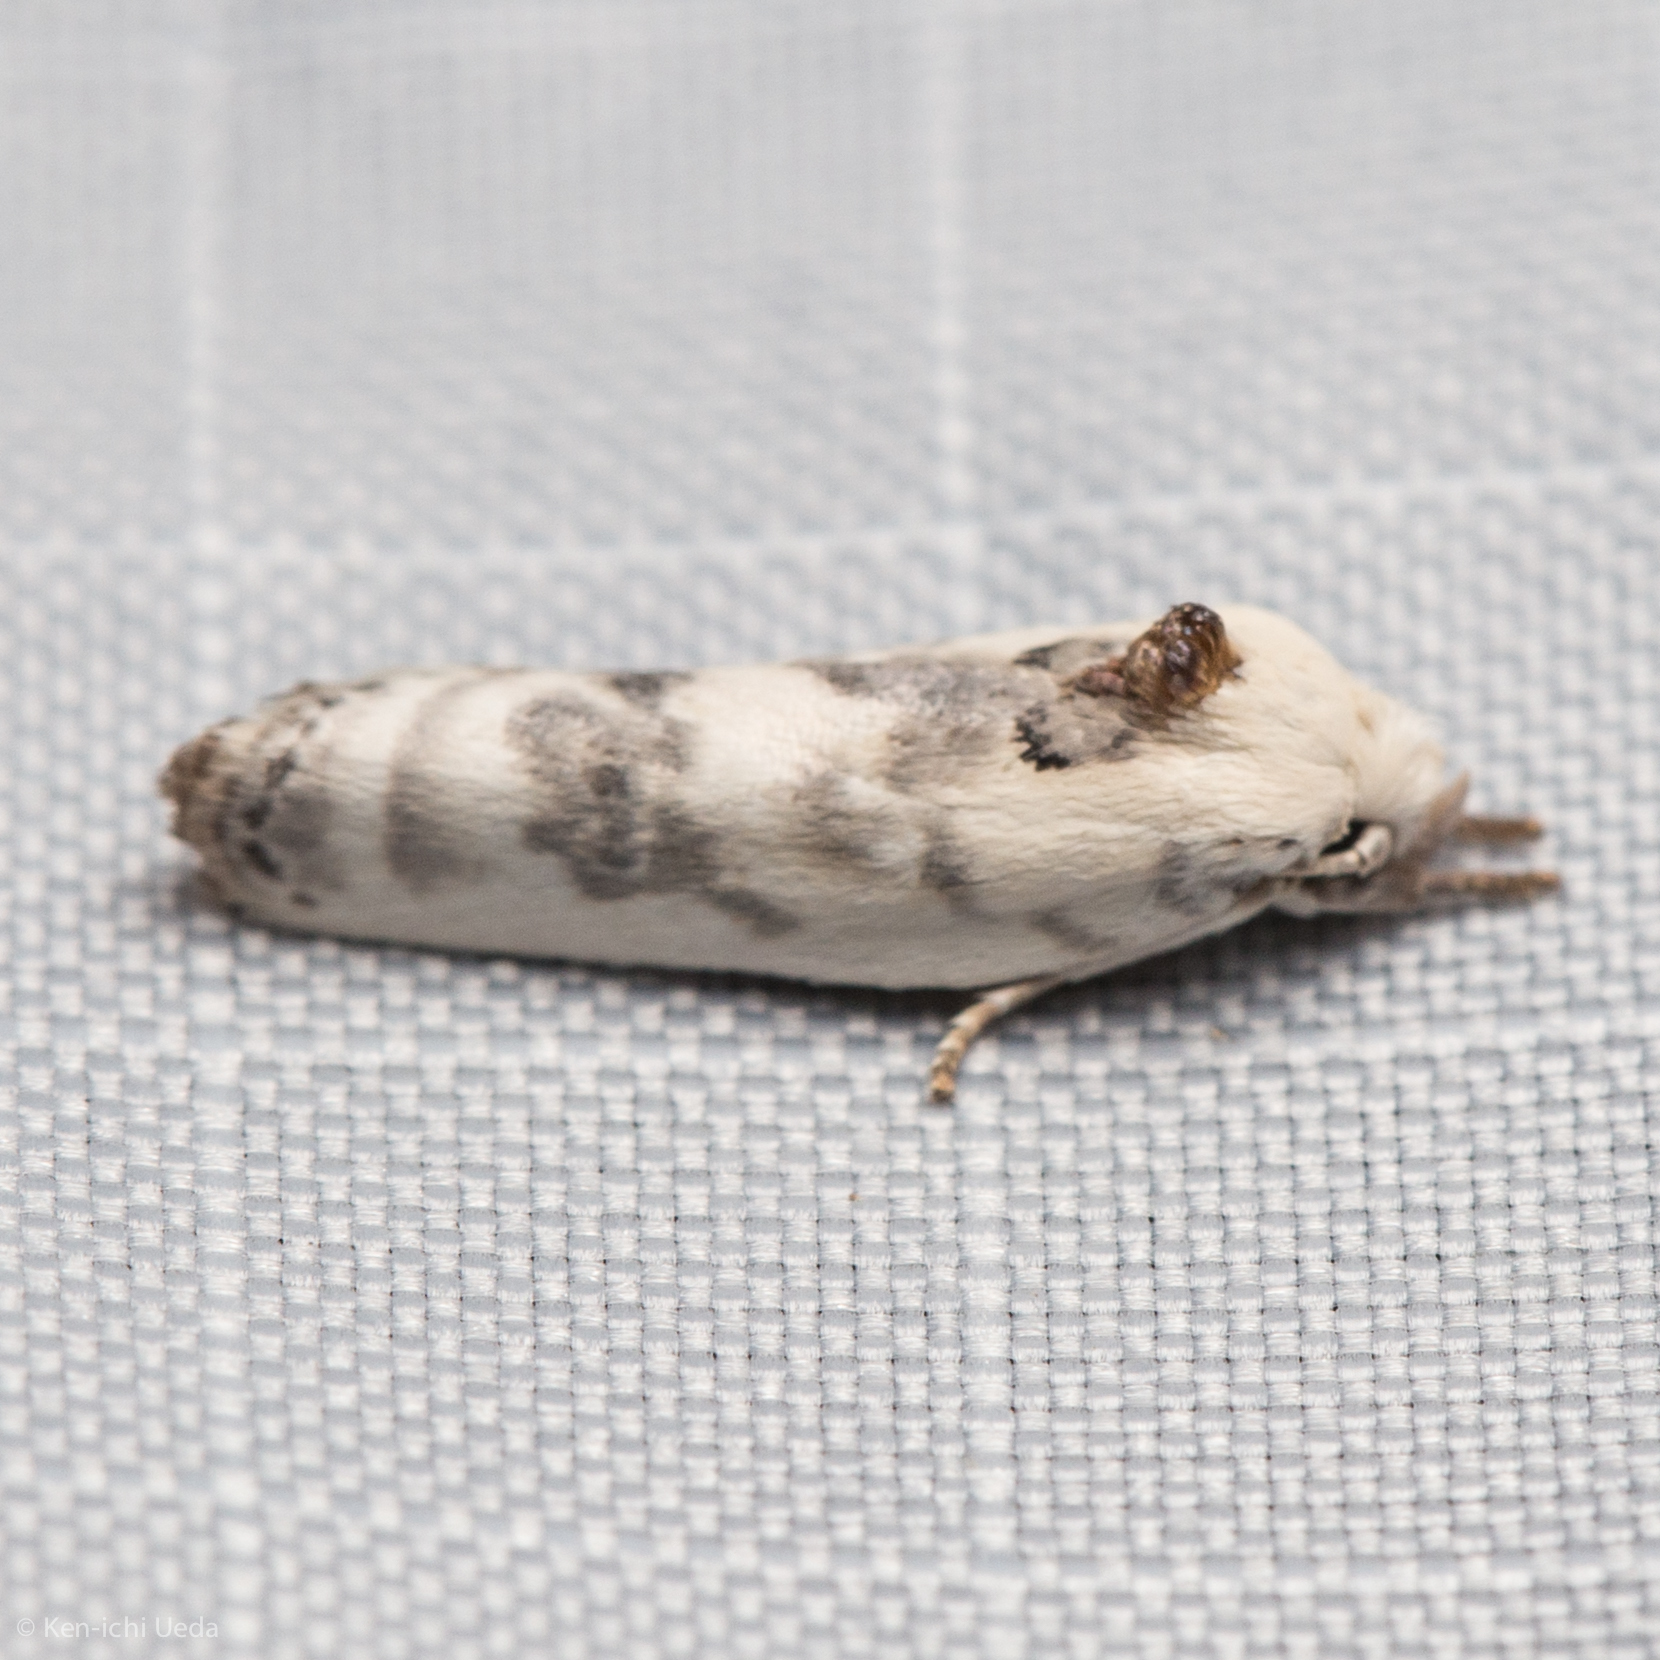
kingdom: Animalia
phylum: Arthropoda
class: Insecta
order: Lepidoptera
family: Depressariidae
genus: Antaeotricha
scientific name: Antaeotricha leucillana
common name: Pale gray bird-dropping moth
